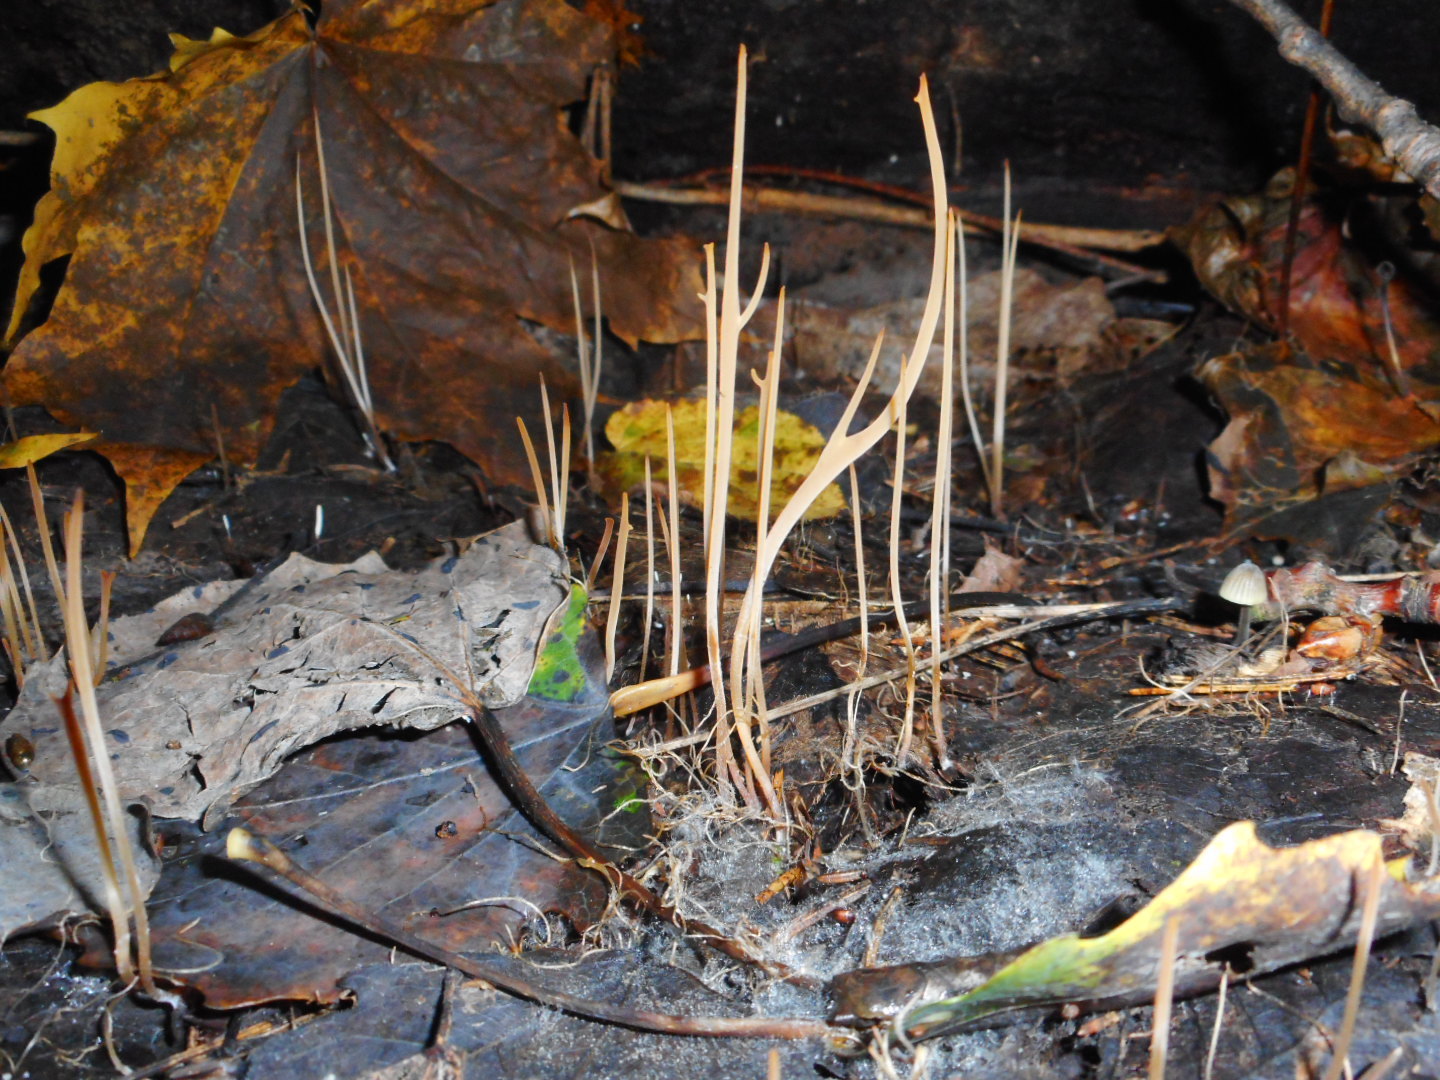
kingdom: Fungi
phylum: Basidiomycota
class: Agaricomycetes
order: Agaricales
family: Typhulaceae
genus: Typhula
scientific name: Typhula juncea
